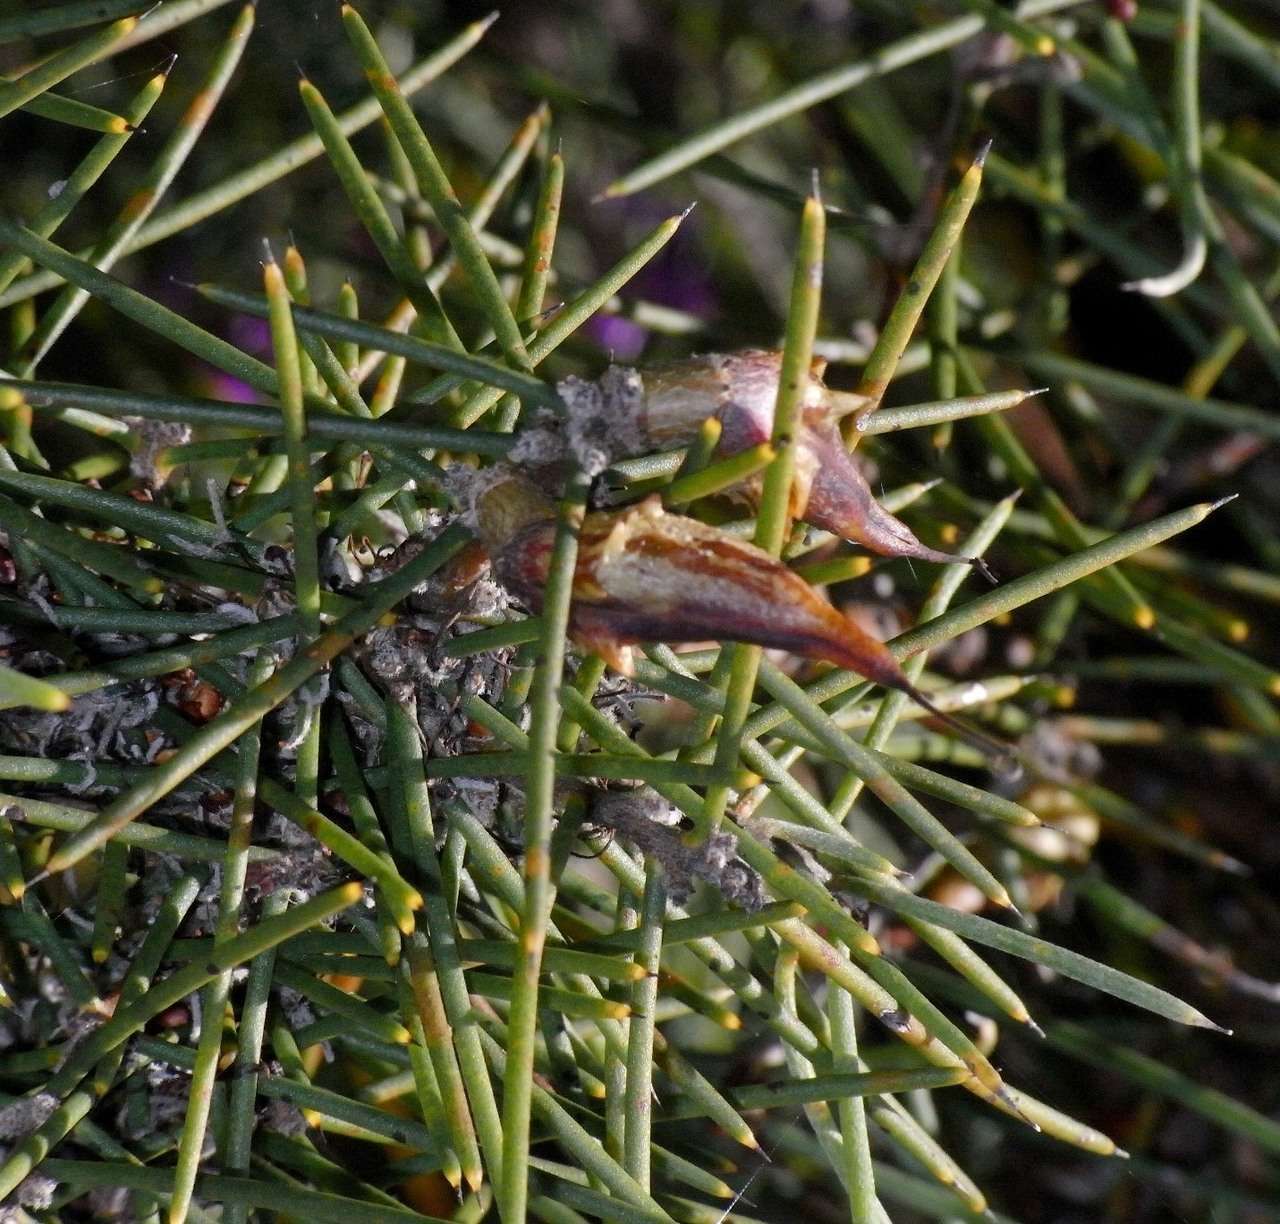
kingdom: Plantae
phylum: Tracheophyta
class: Magnoliopsida
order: Proteales
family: Proteaceae
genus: Hakea
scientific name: Hakea teretifolia
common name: Dagger hakea
